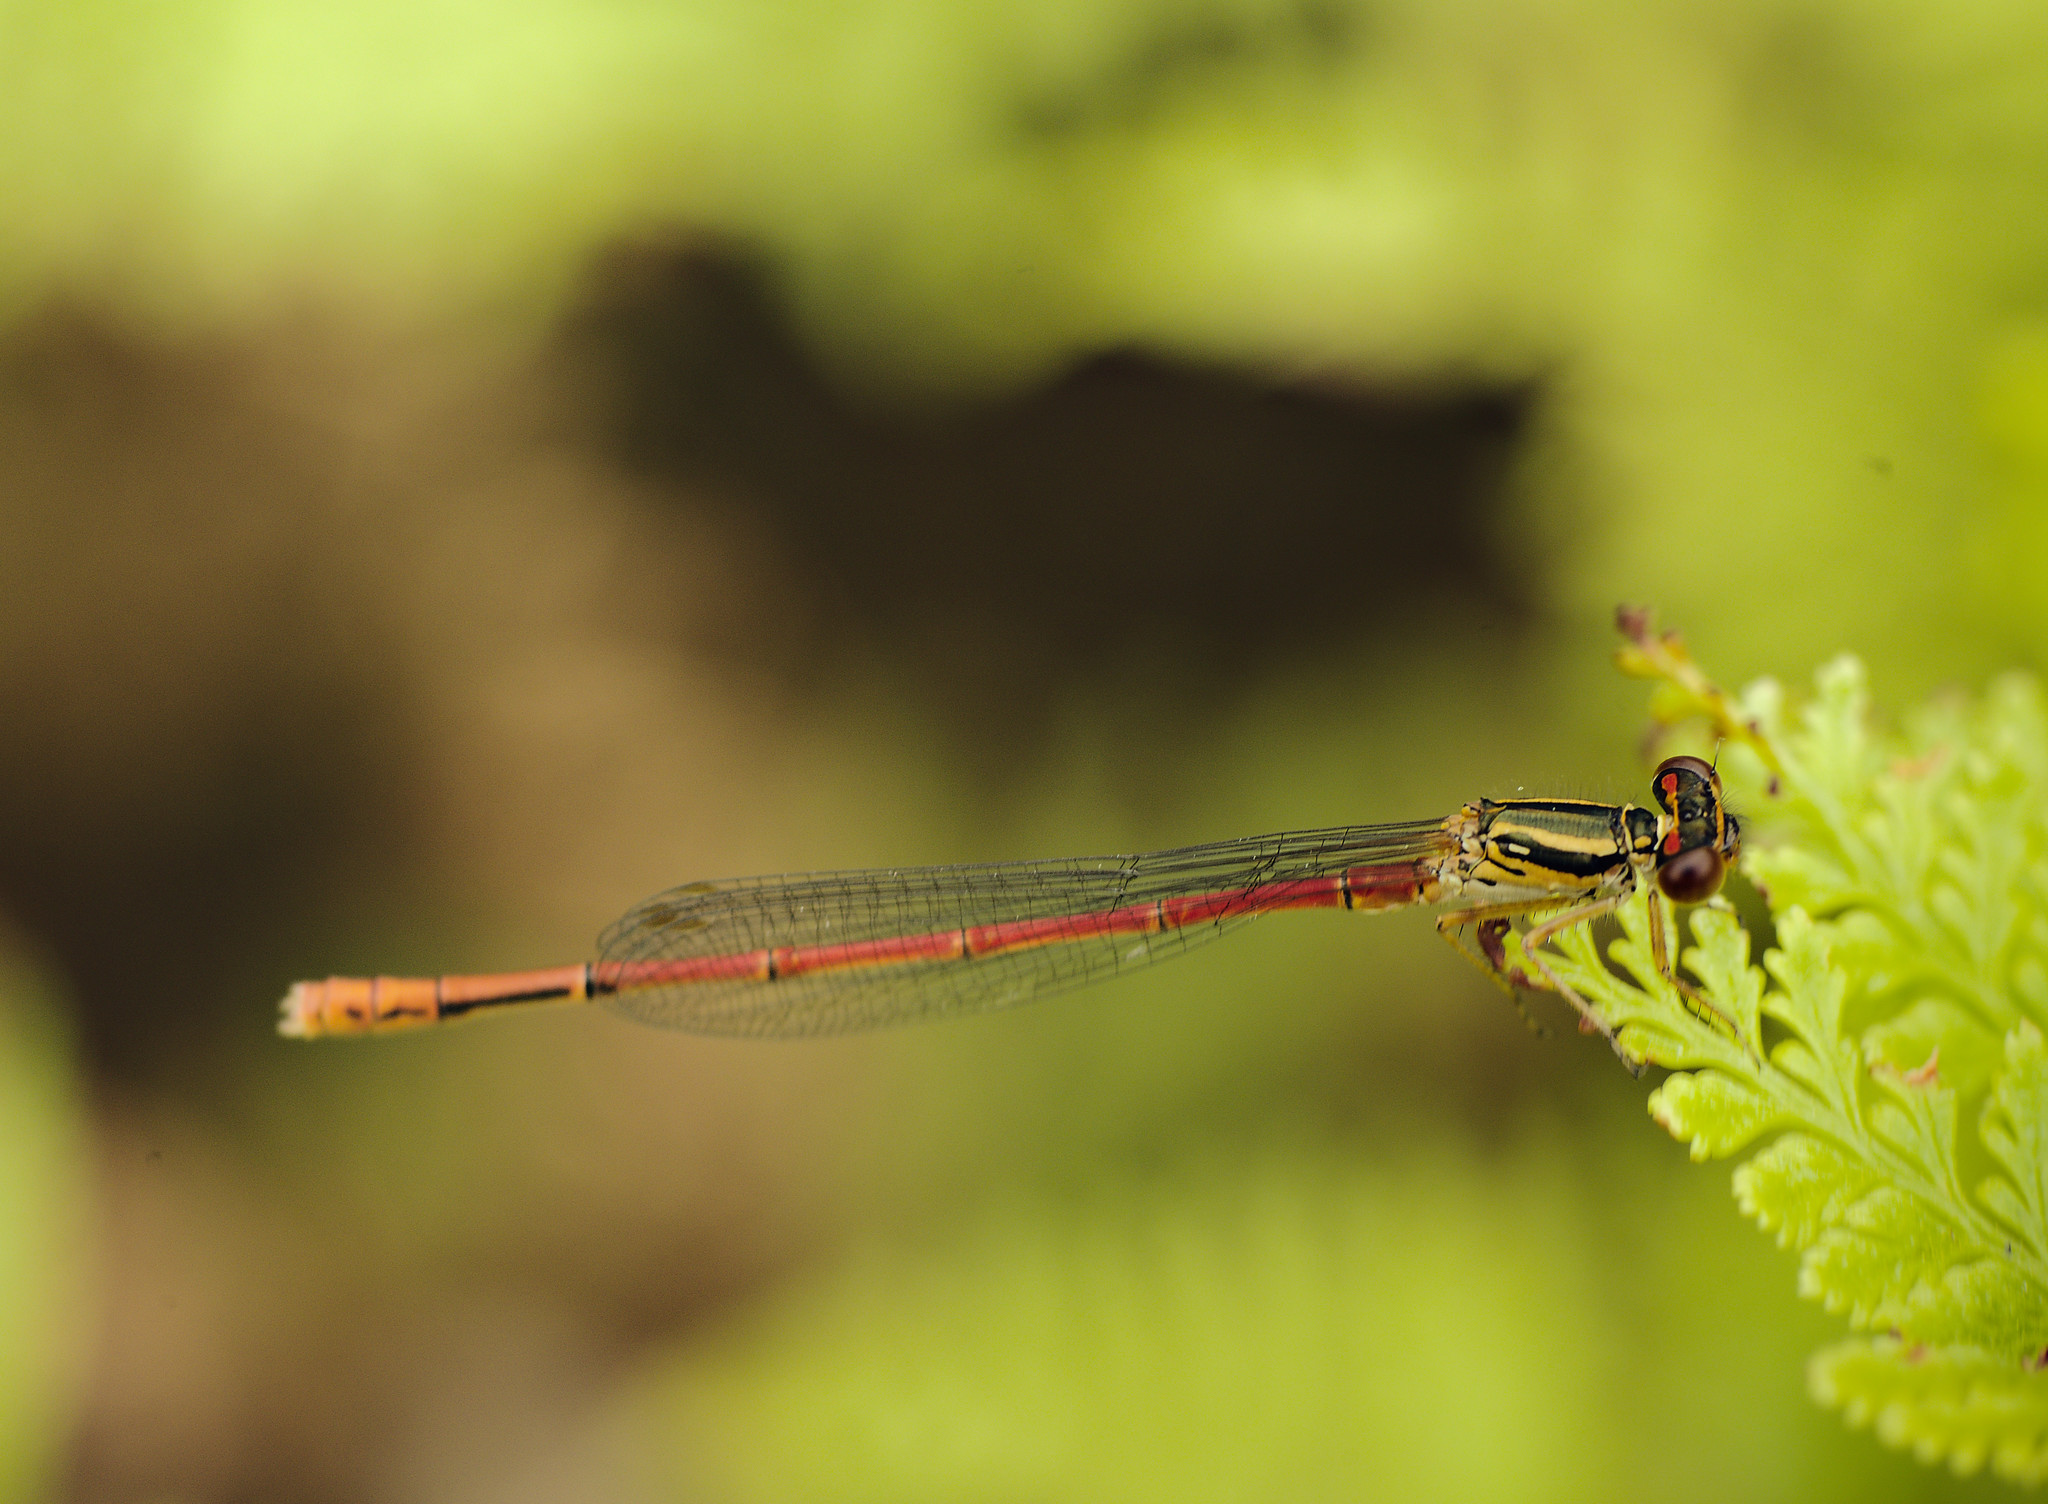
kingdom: Animalia
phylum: Arthropoda
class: Insecta
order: Odonata
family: Coenagrionidae
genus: Xanthocnemis
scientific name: Xanthocnemis zealandica
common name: Common redcoat damselfly
